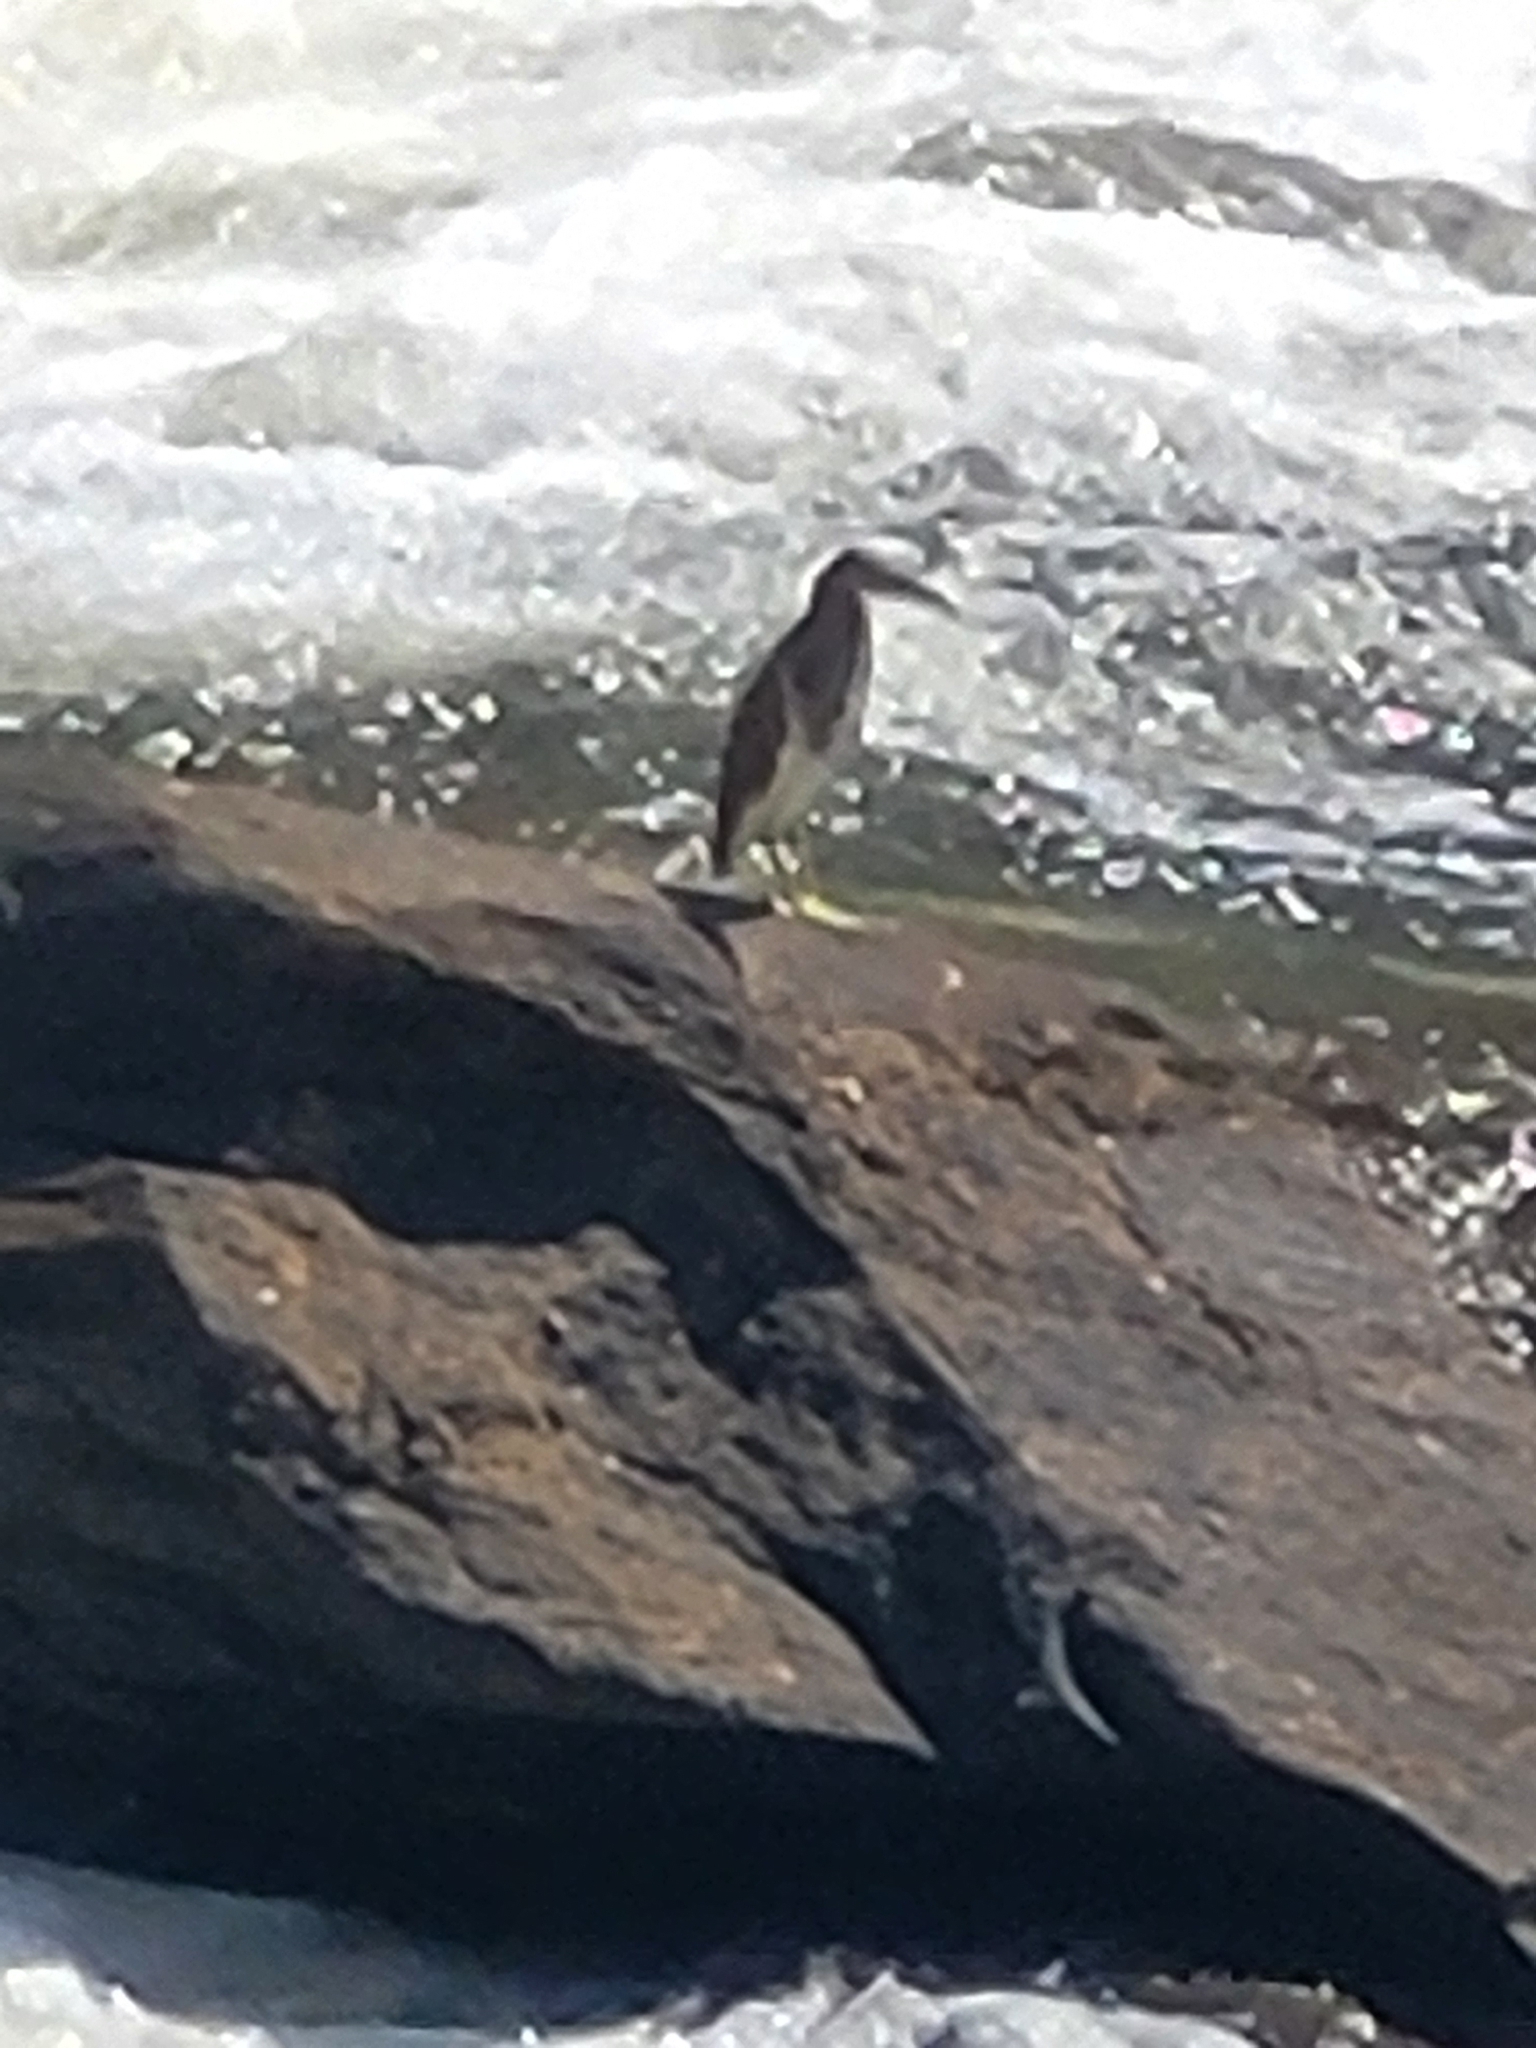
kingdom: Animalia
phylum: Chordata
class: Aves
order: Pelecaniformes
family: Ardeidae
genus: Ardeola
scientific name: Ardeola grayii
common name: Indian pond heron
